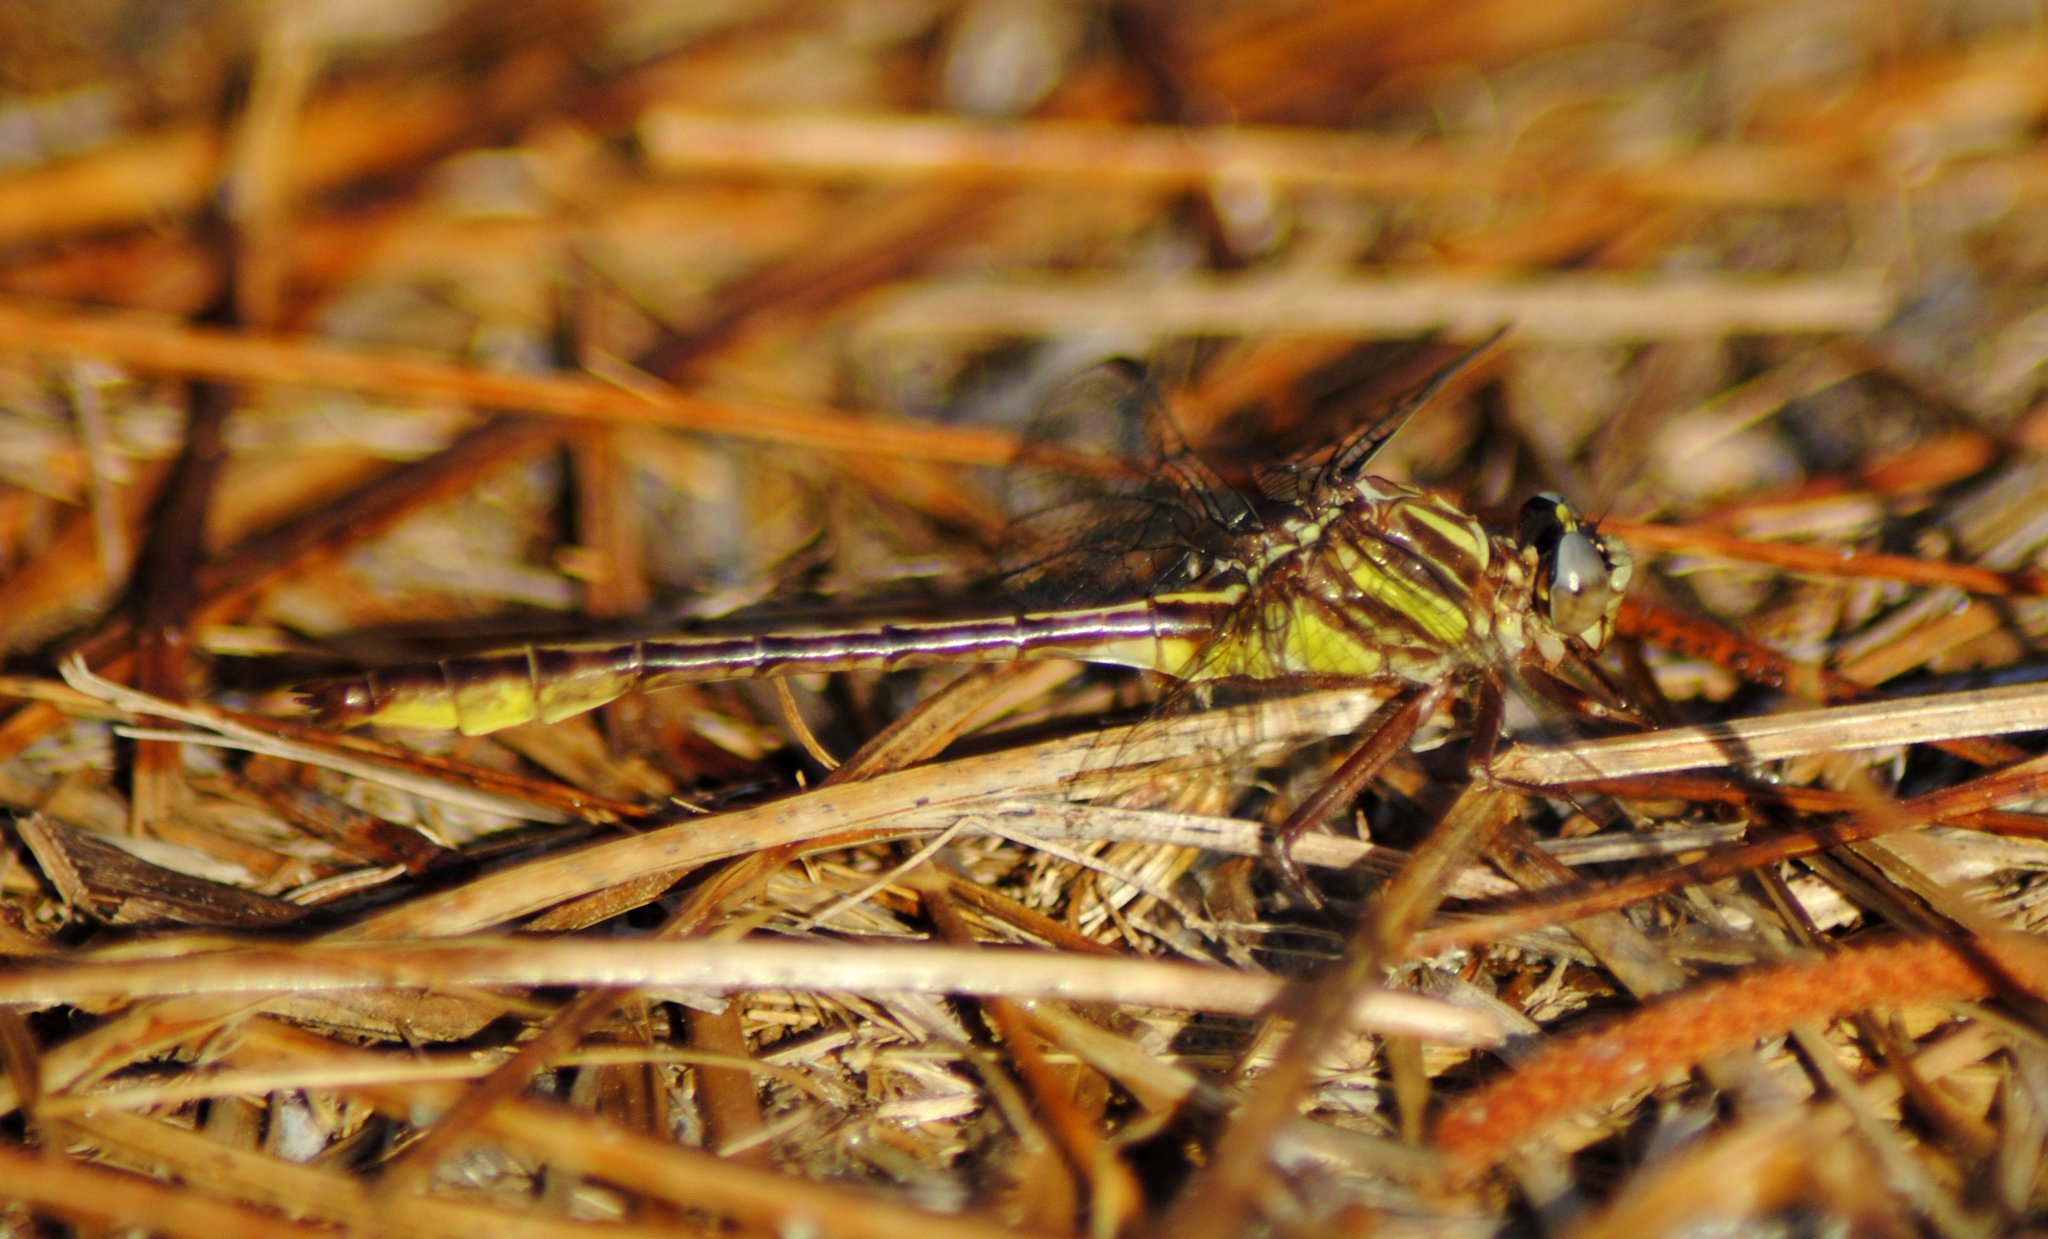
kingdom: Animalia
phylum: Arthropoda
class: Insecta
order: Odonata
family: Gomphidae
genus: Phanogomphus
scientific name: Phanogomphus minutus
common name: Cypress clubtail
